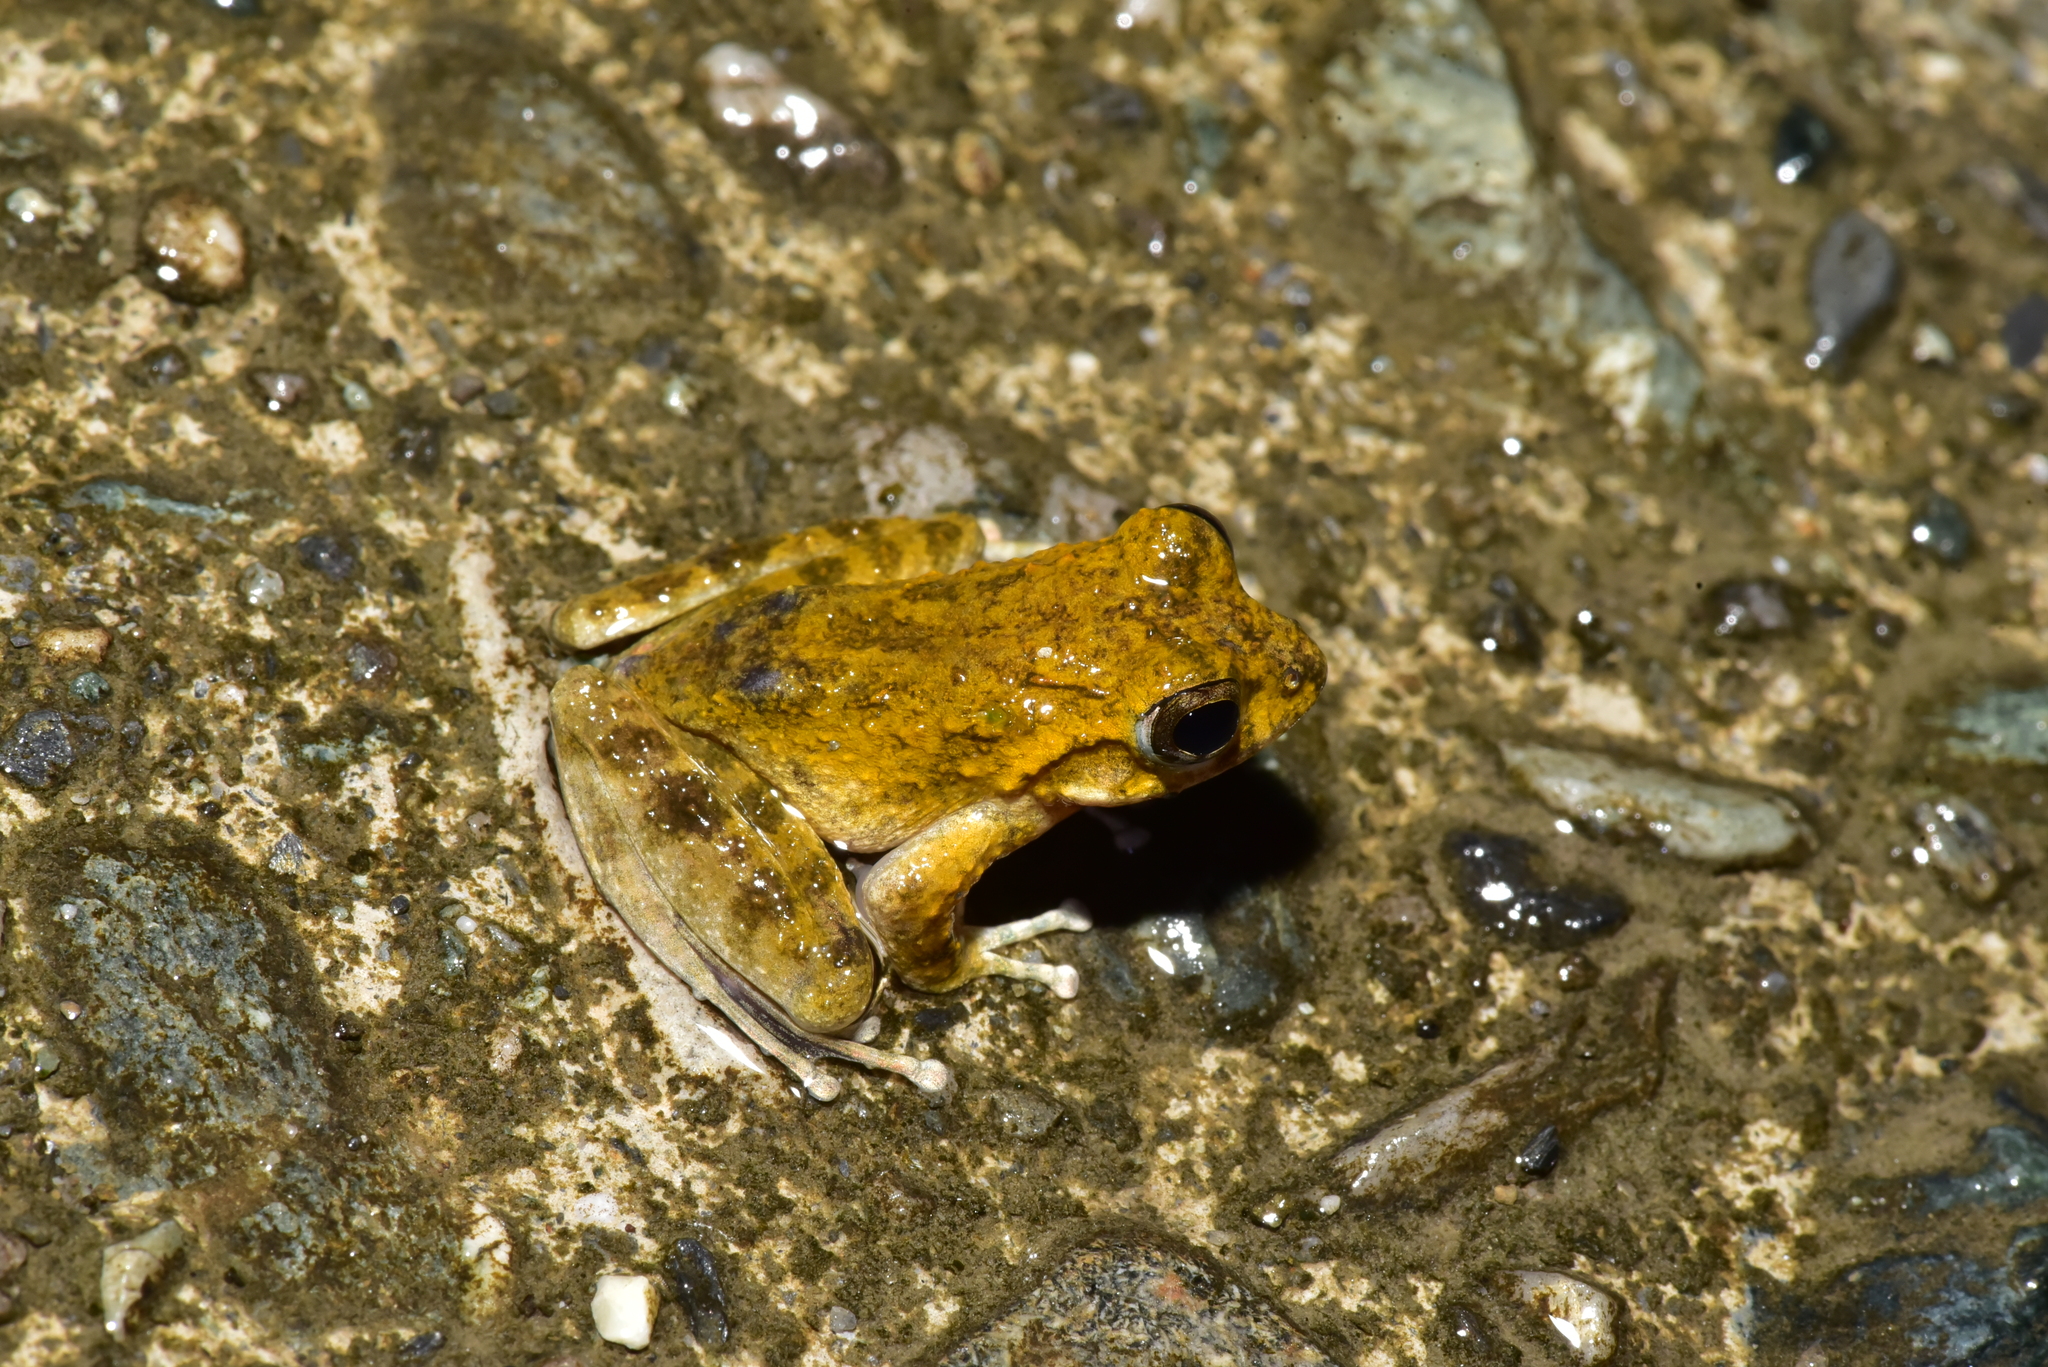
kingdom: Animalia
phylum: Chordata
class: Amphibia
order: Anura
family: Rhacophoridae
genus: Buergeria
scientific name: Buergeria otai
